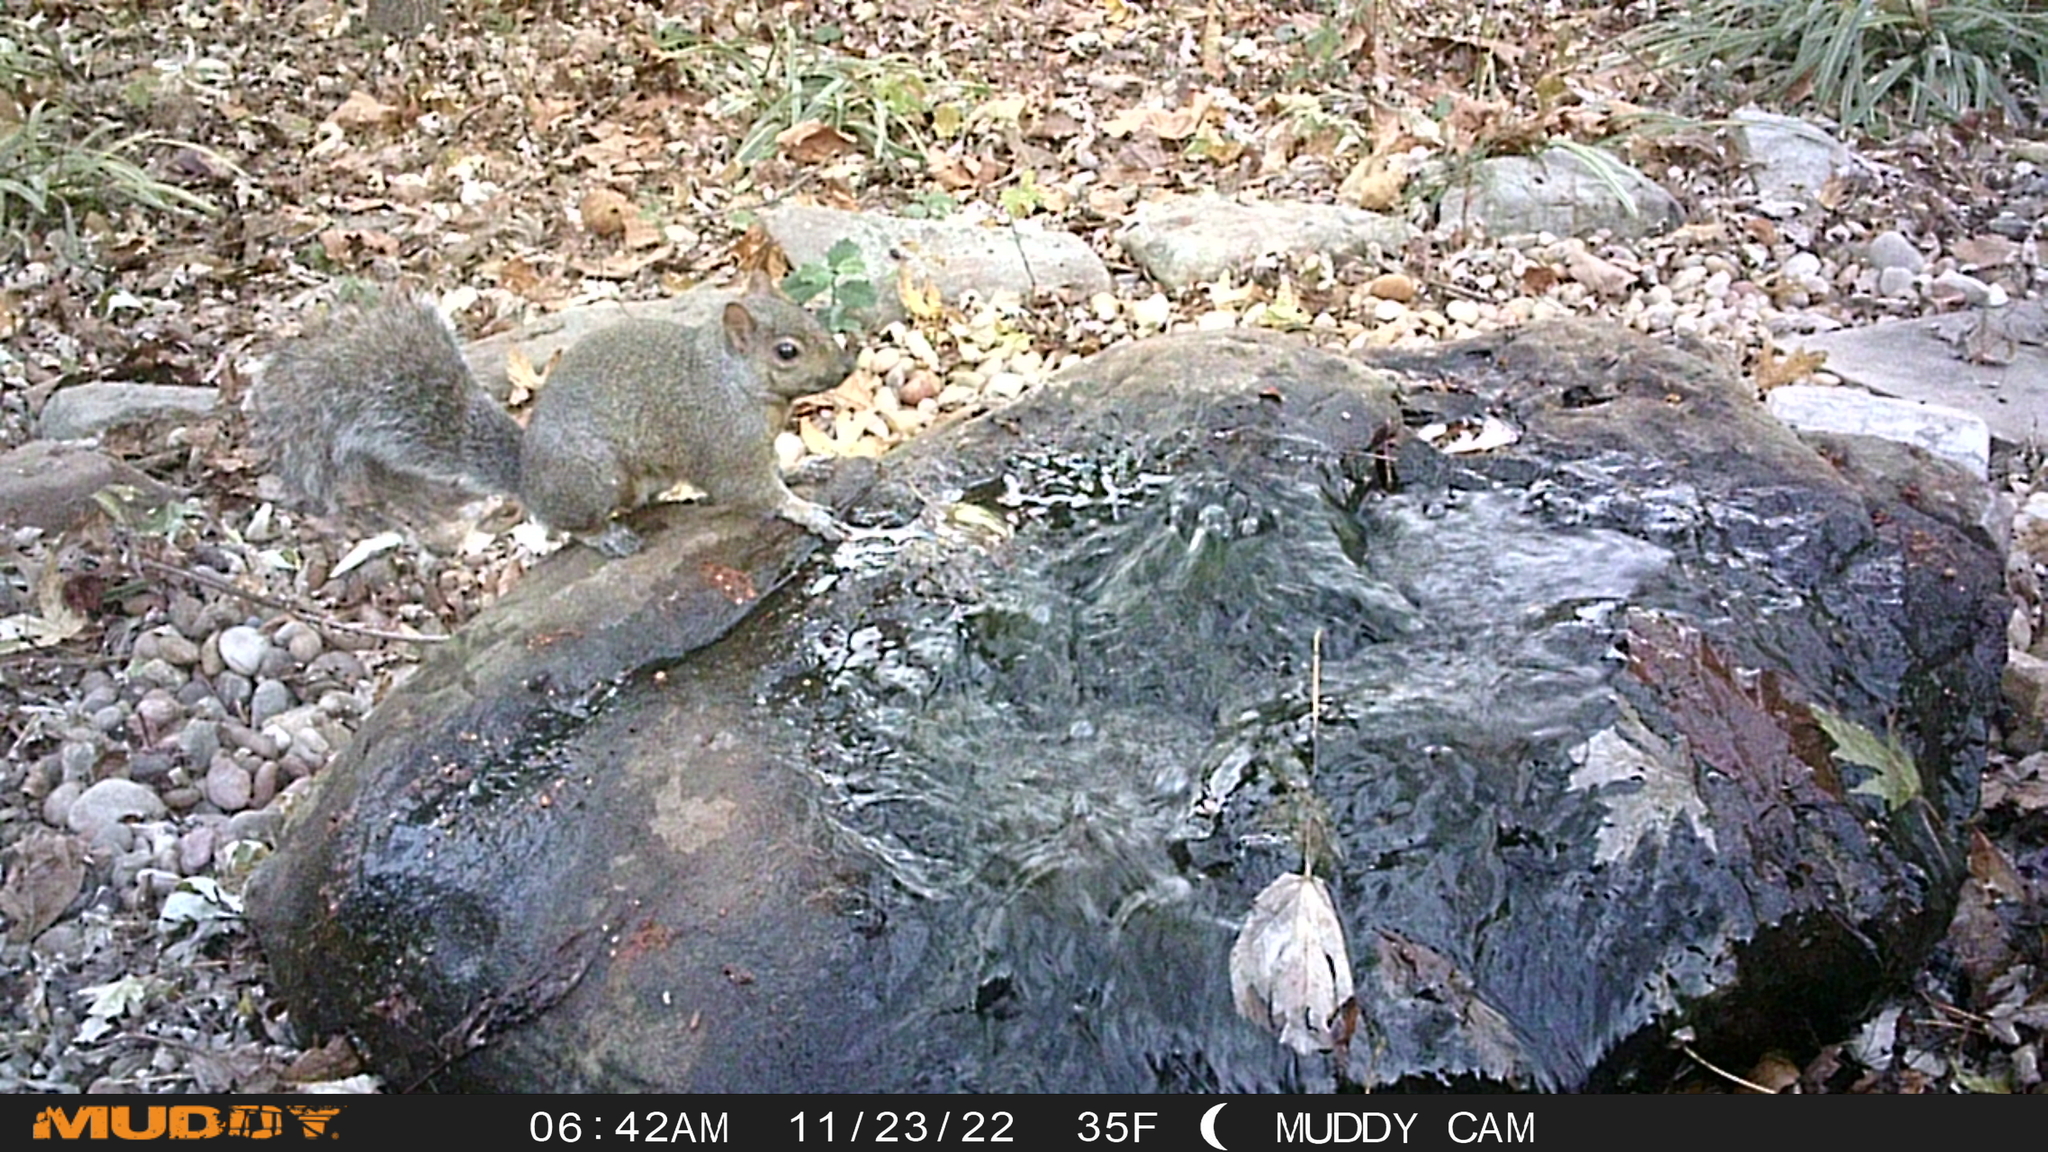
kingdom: Animalia
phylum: Chordata
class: Mammalia
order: Rodentia
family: Sciuridae
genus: Sciurus
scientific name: Sciurus carolinensis
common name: Eastern gray squirrel
